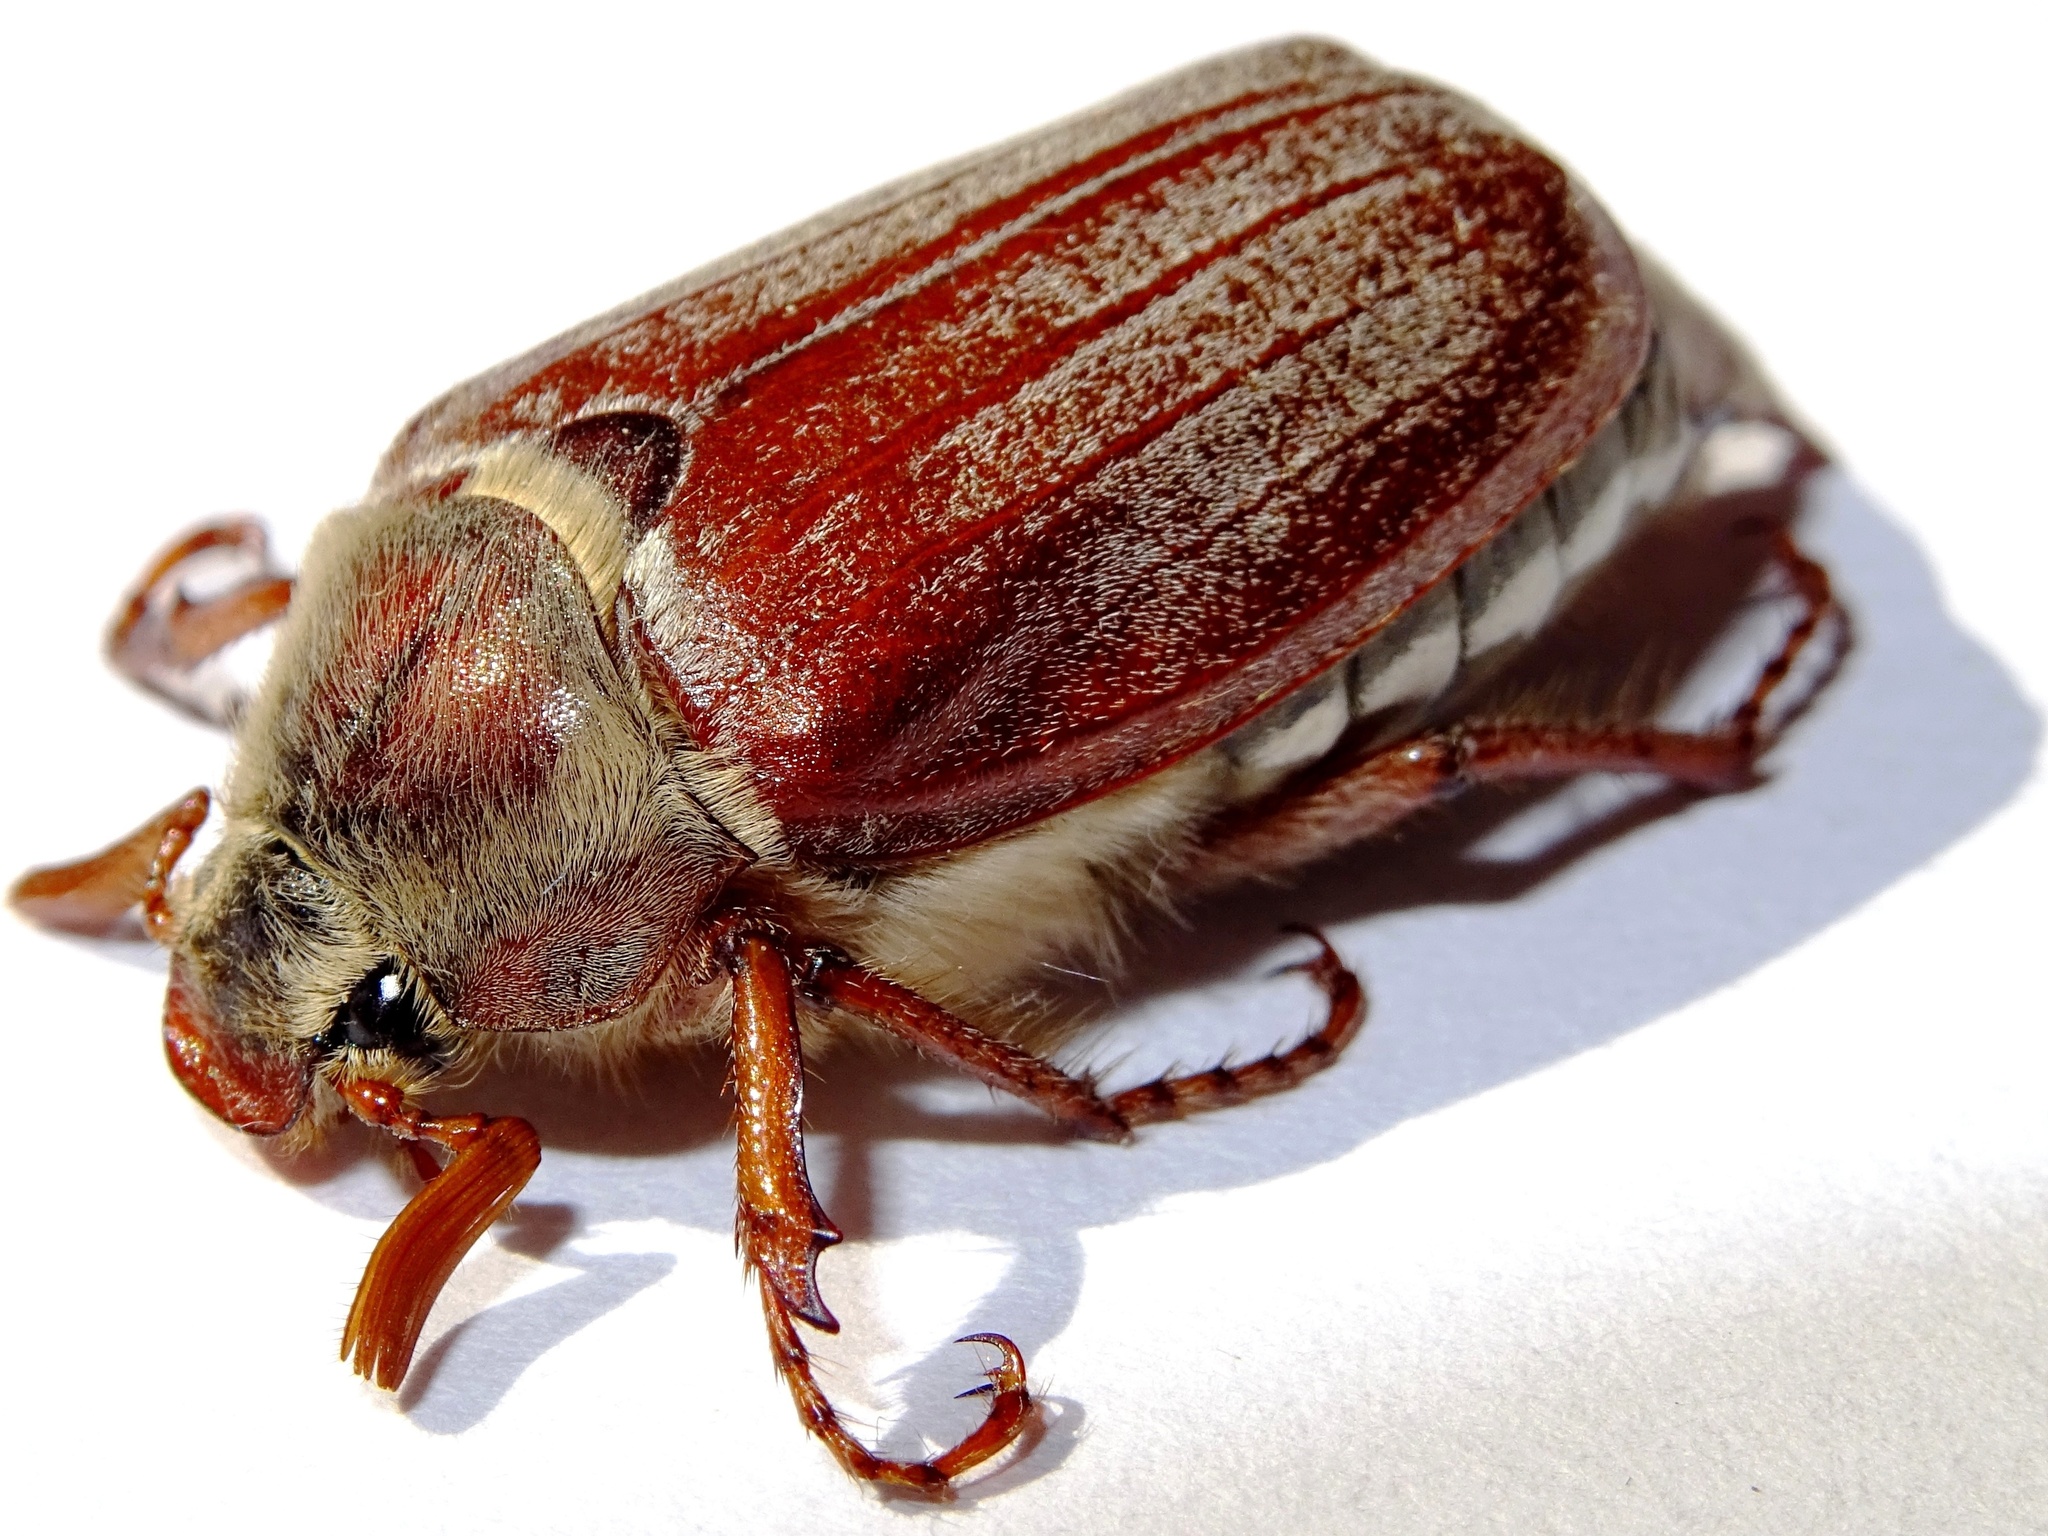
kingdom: Animalia
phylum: Arthropoda
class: Insecta
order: Coleoptera
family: Scarabaeidae
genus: Melolontha
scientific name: Melolontha melolontha
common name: Cockchafer maybeetle
